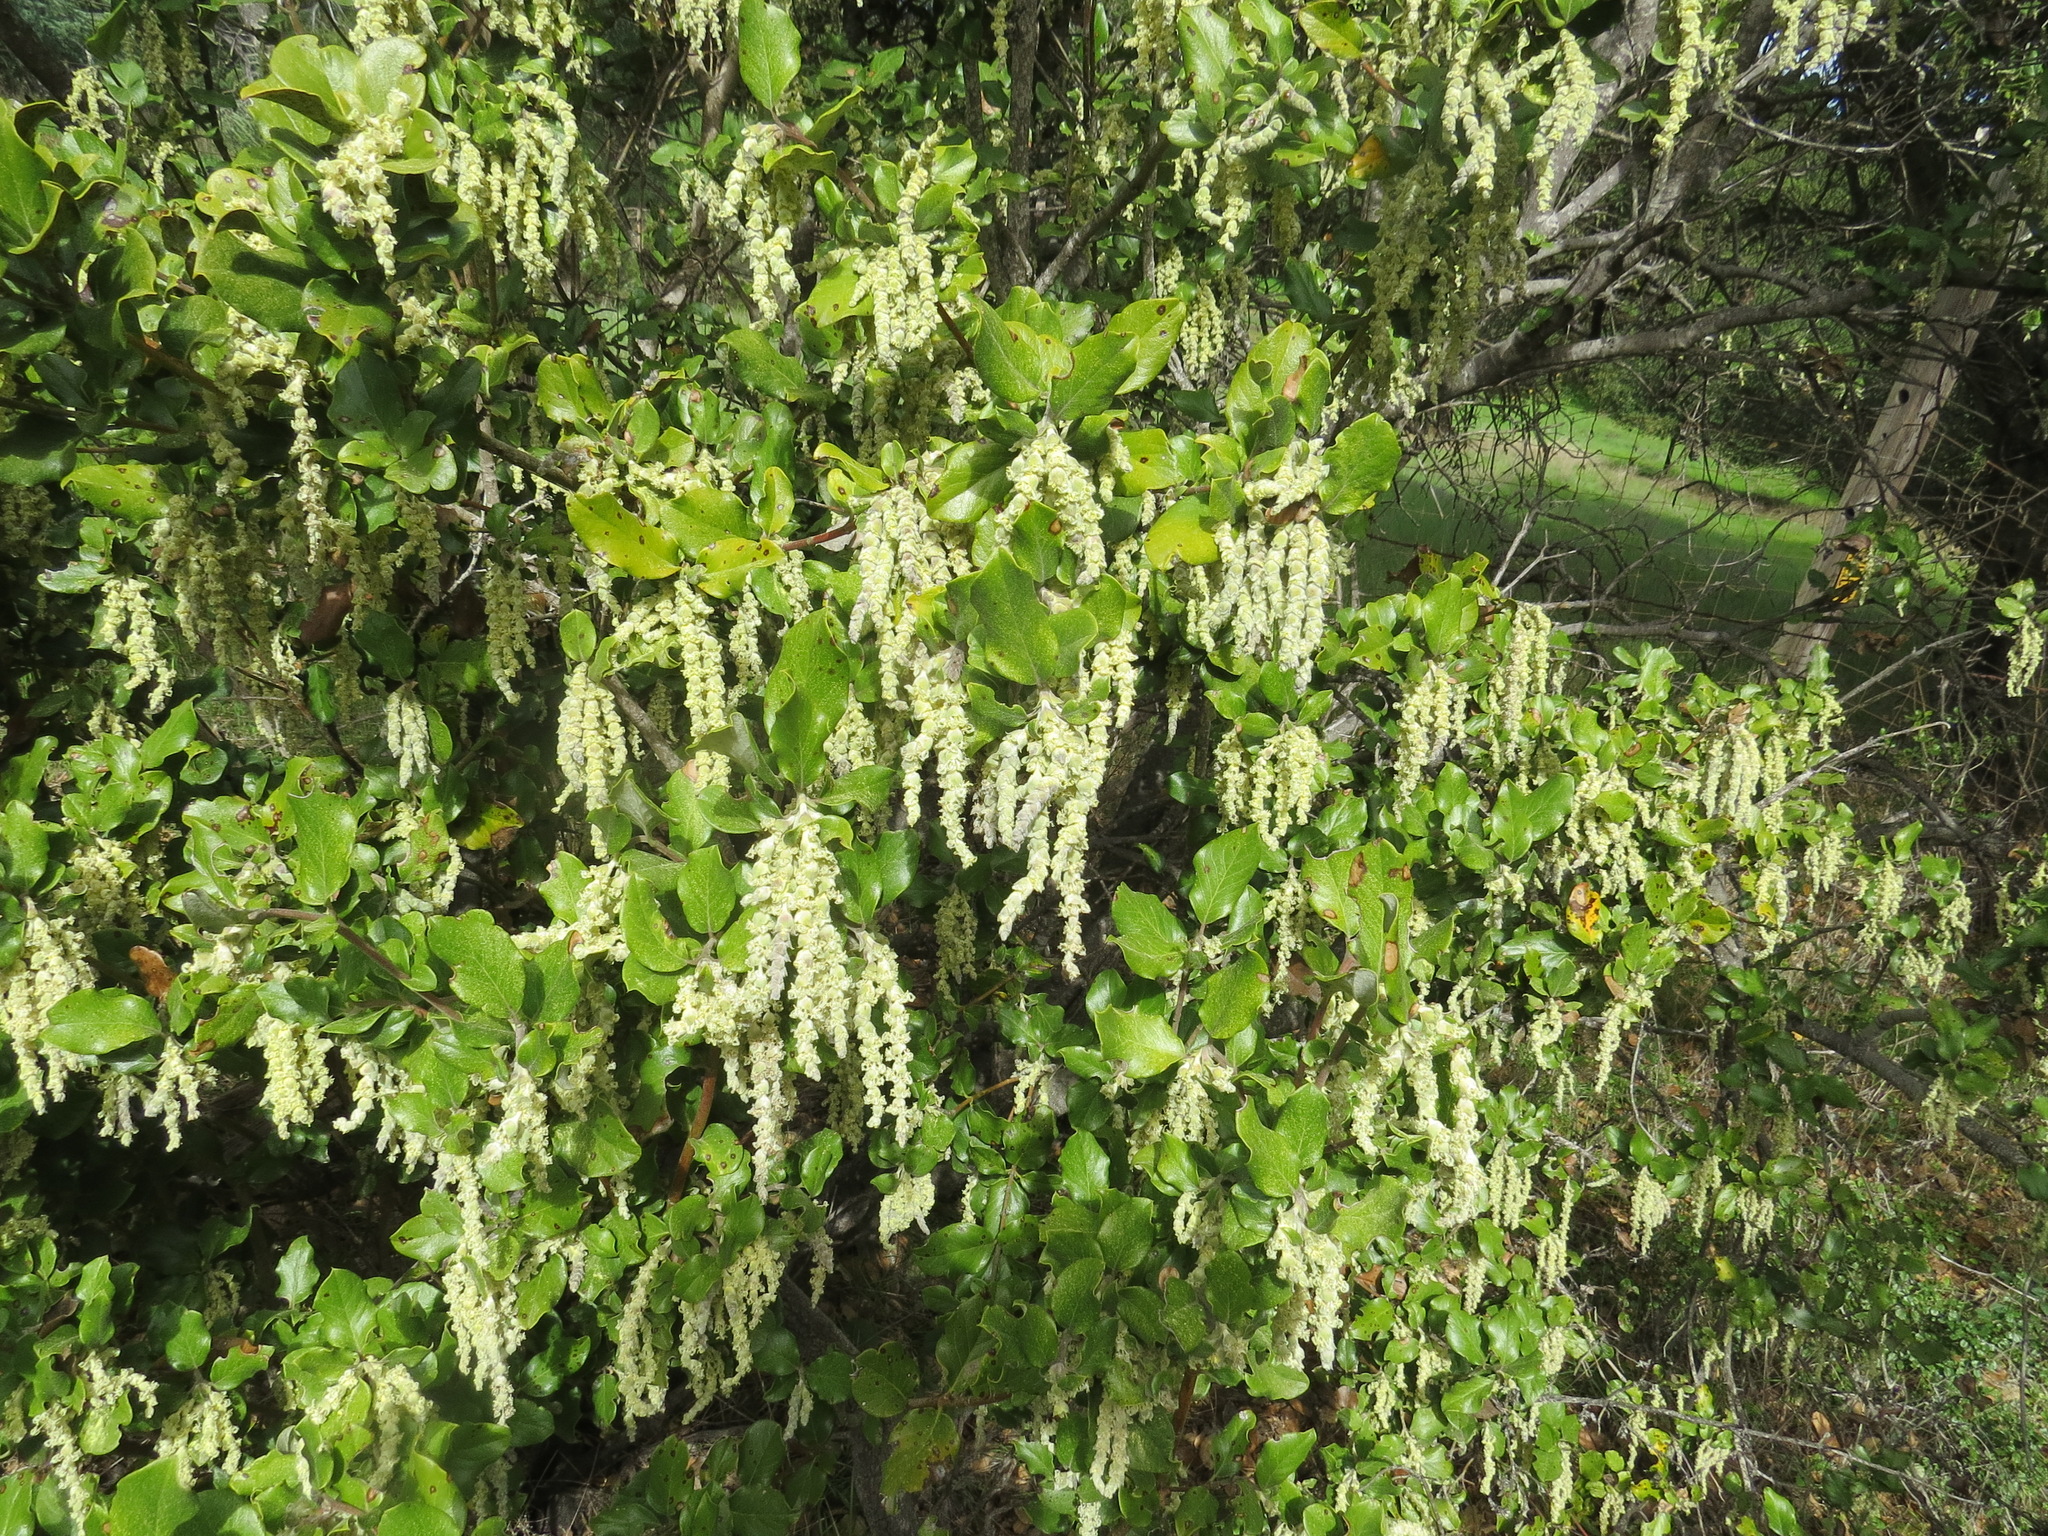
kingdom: Animalia
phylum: Arthropoda
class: Insecta
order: Diptera
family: Cecidomyiidae
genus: Asphondylia
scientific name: Asphondylia garryae
